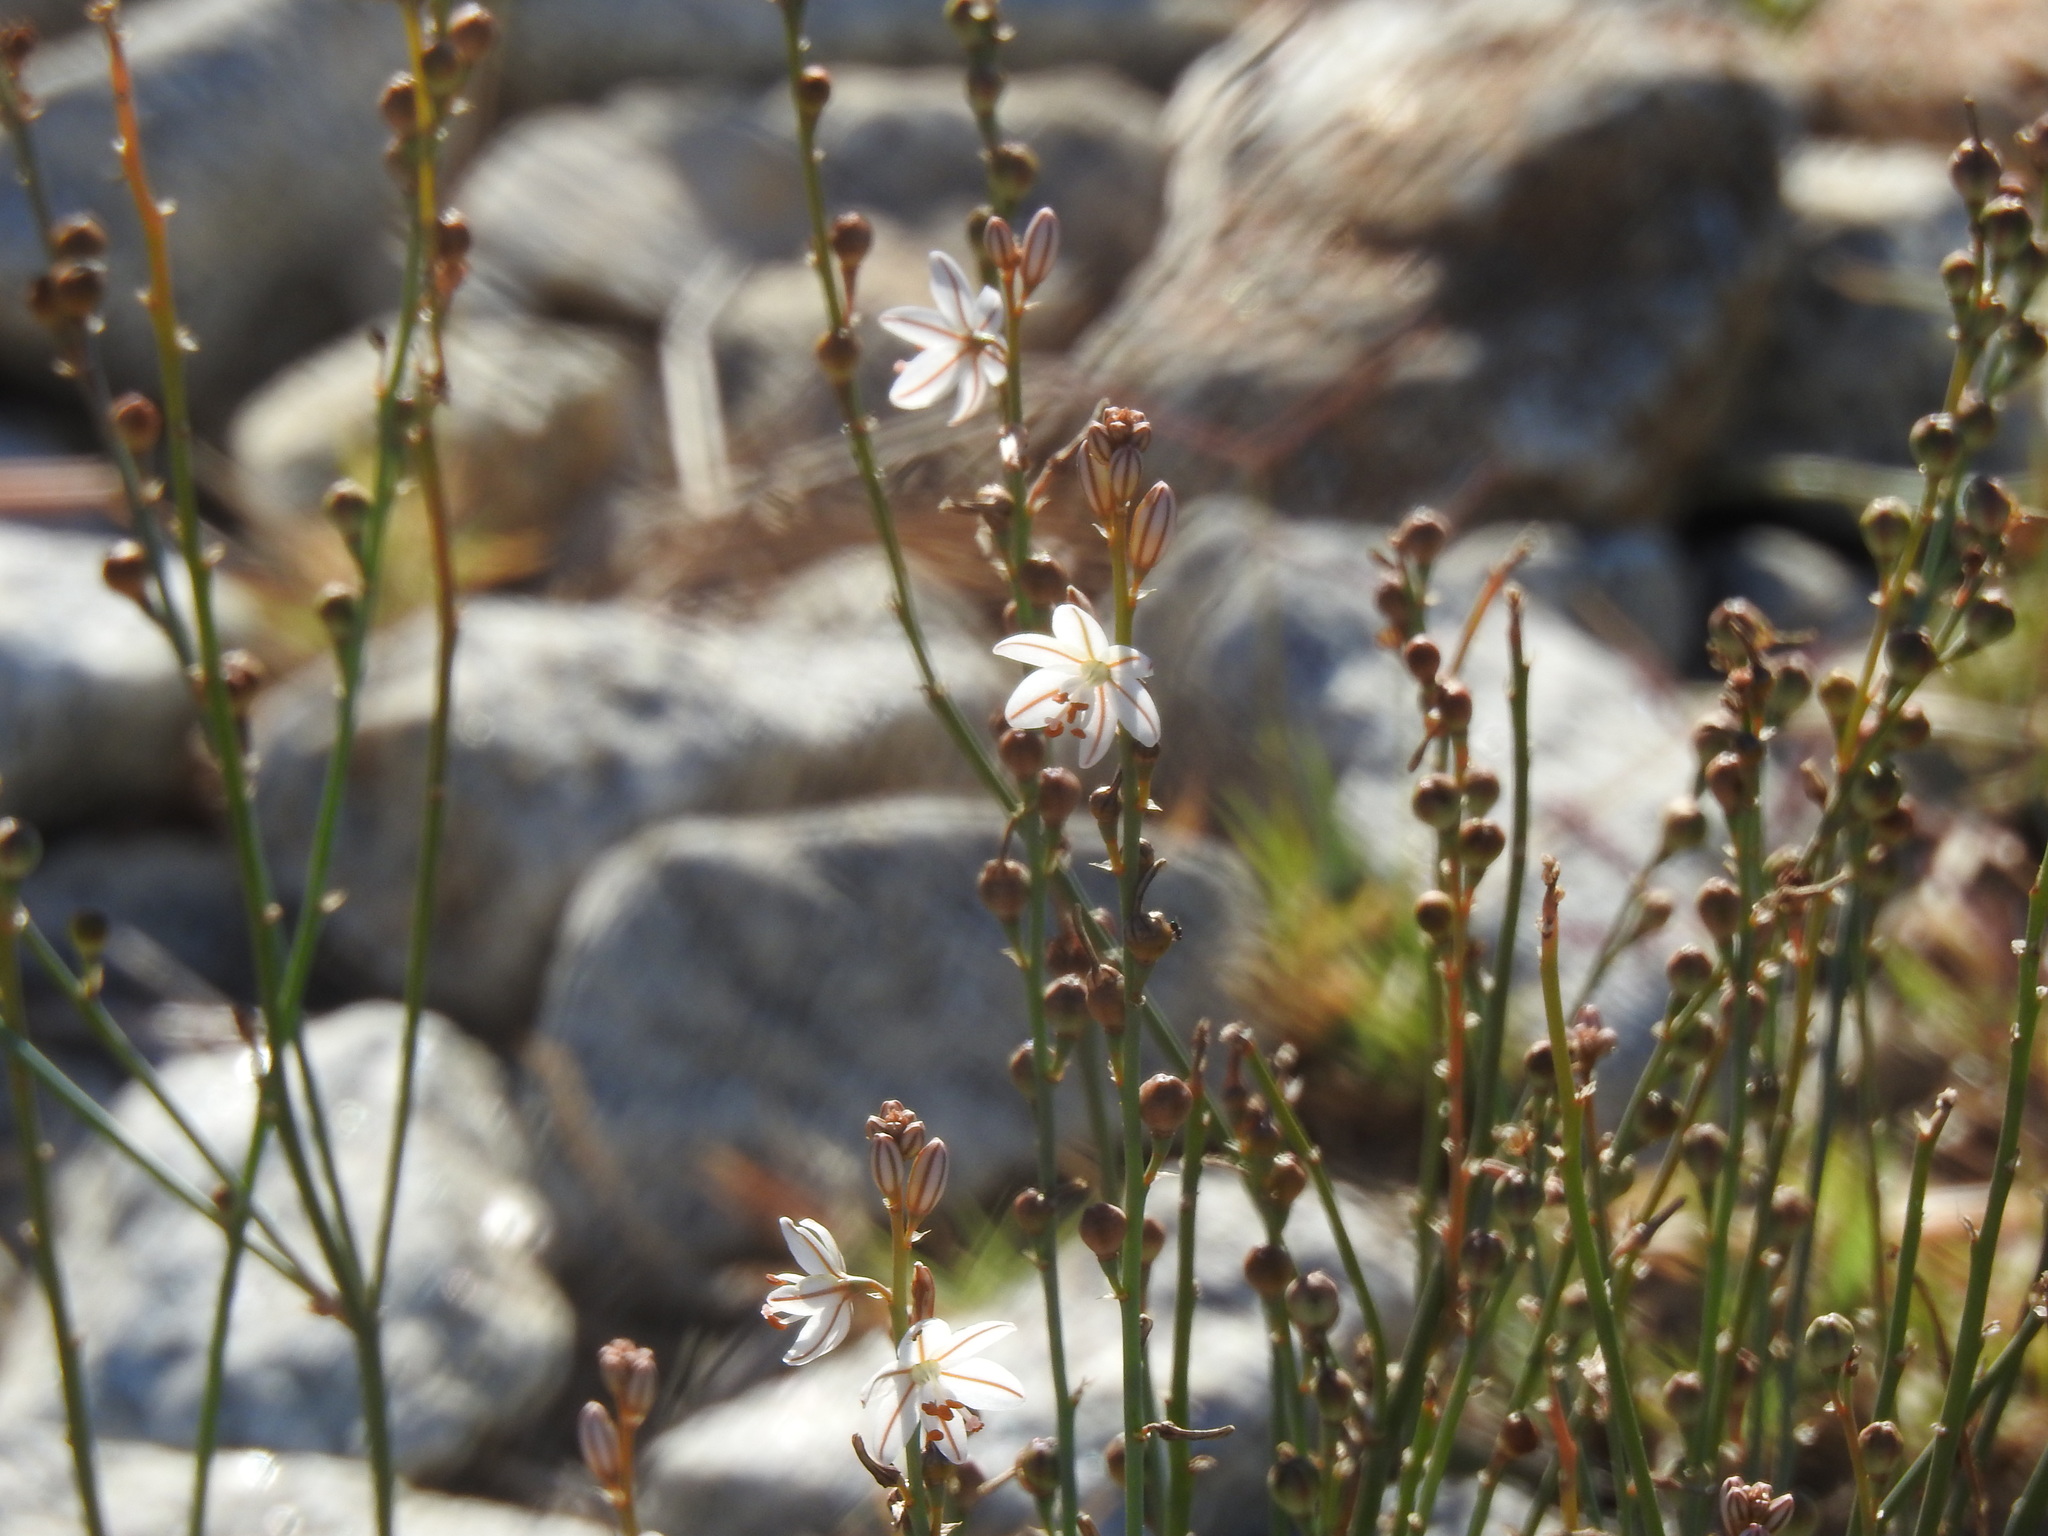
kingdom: Plantae
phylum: Tracheophyta
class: Liliopsida
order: Asparagales
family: Asphodelaceae
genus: Asphodelus
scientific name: Asphodelus fistulosus
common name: Onionweed
